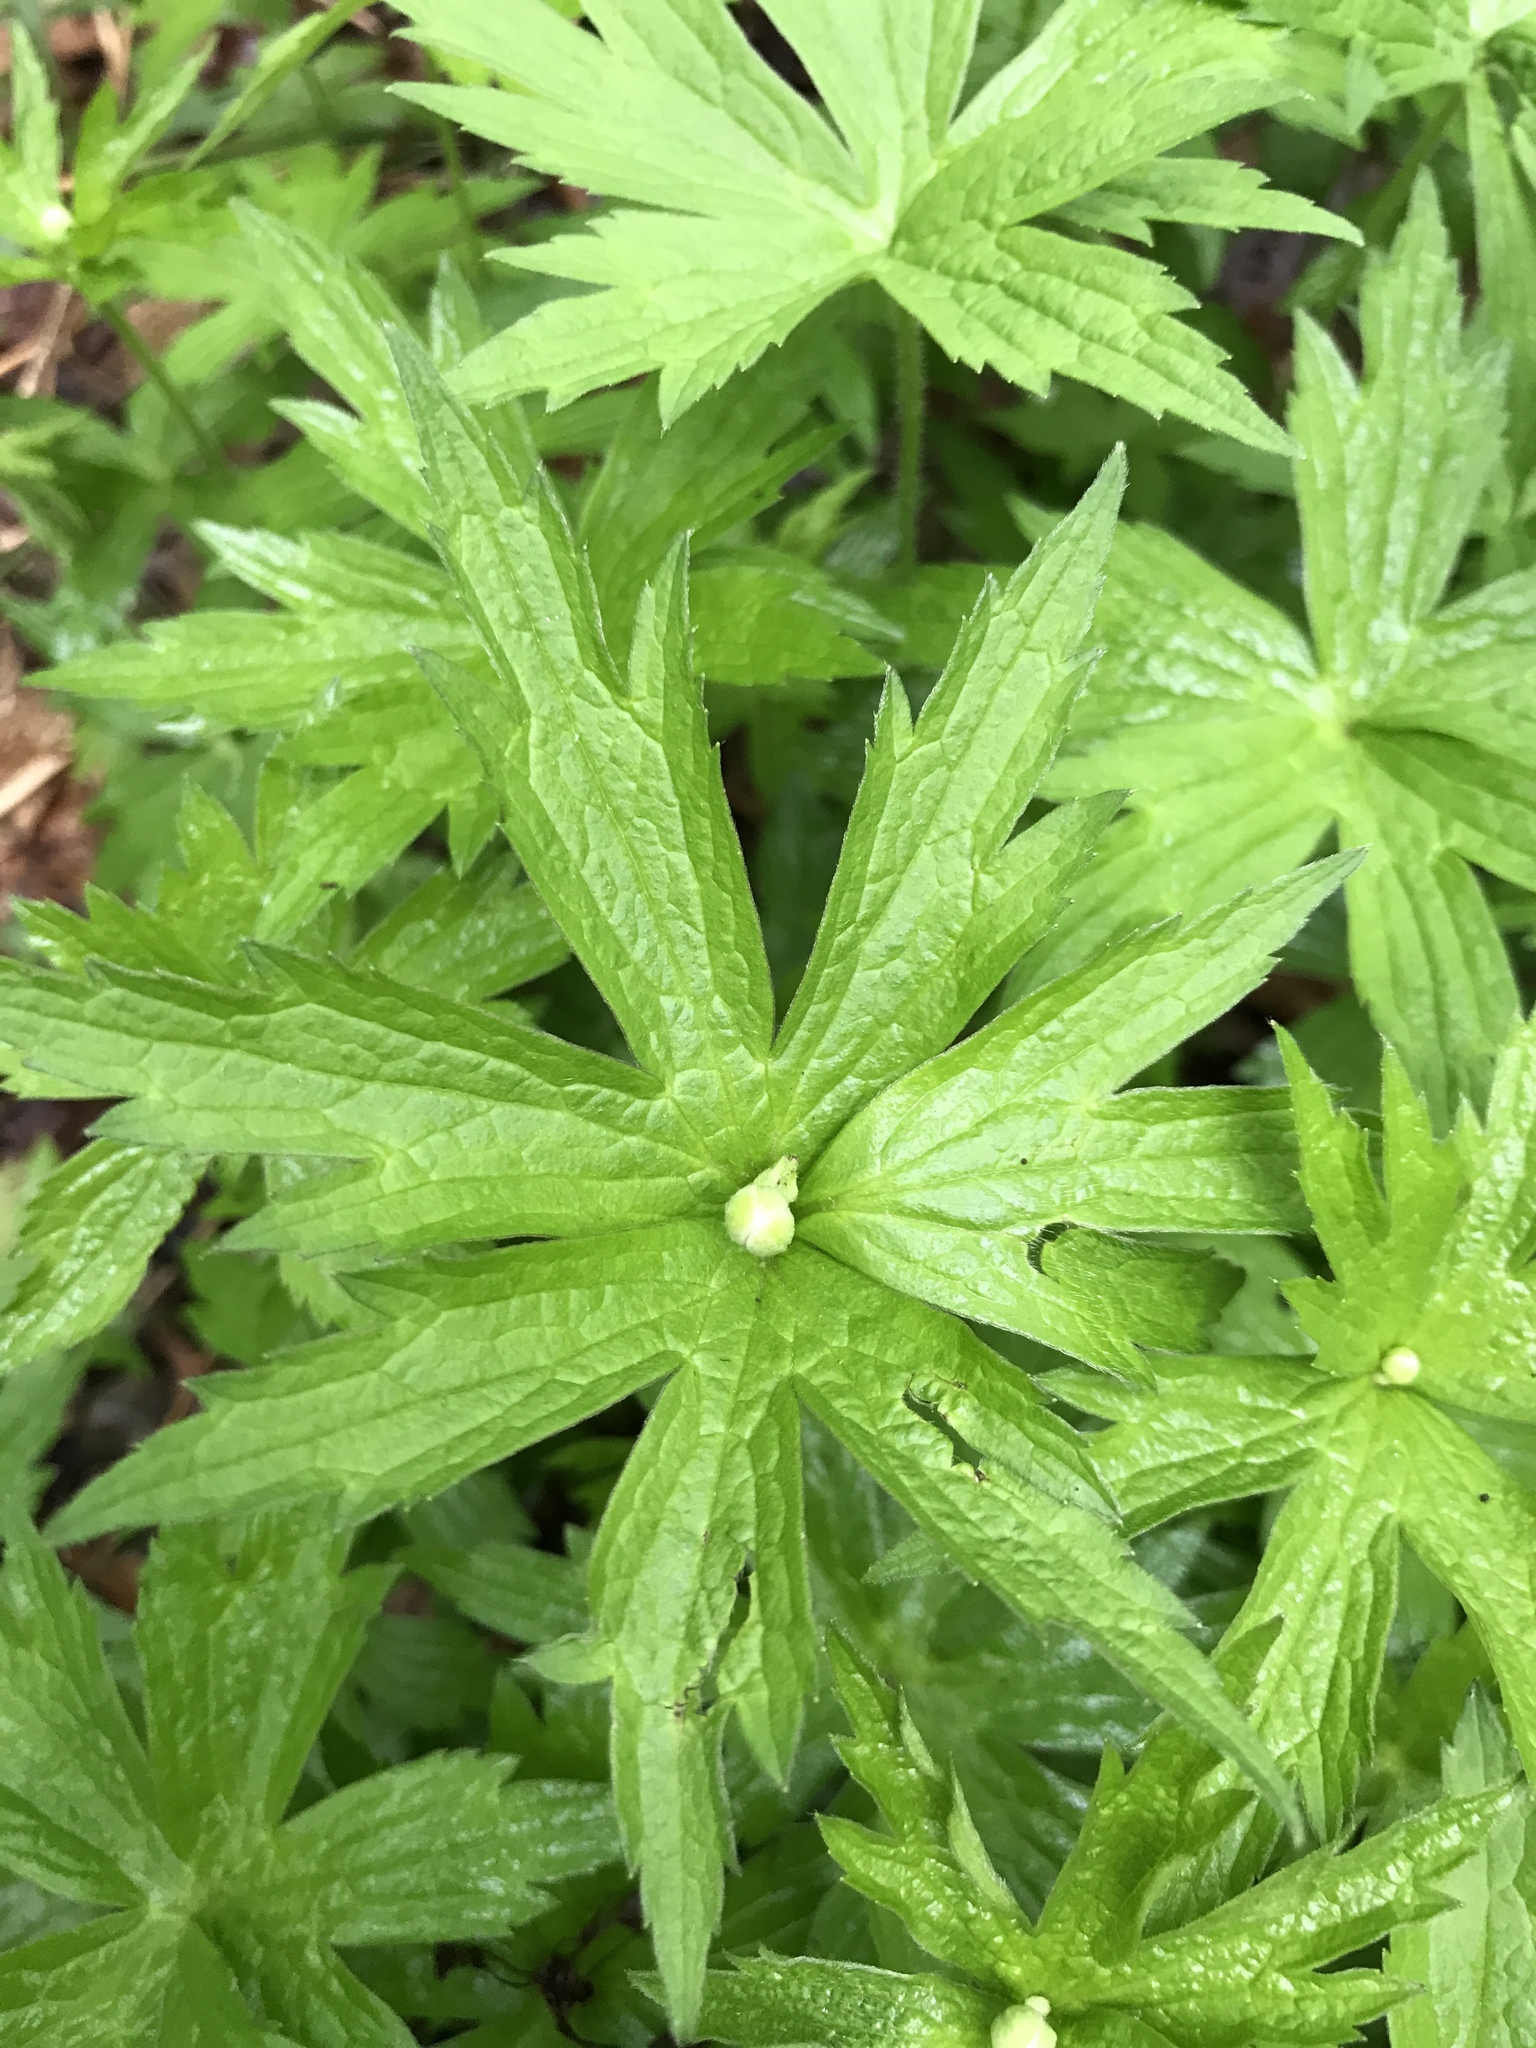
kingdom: Plantae
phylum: Tracheophyta
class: Magnoliopsida
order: Ranunculales
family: Ranunculaceae
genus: Anemonastrum
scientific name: Anemonastrum canadense
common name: Canada anemone
